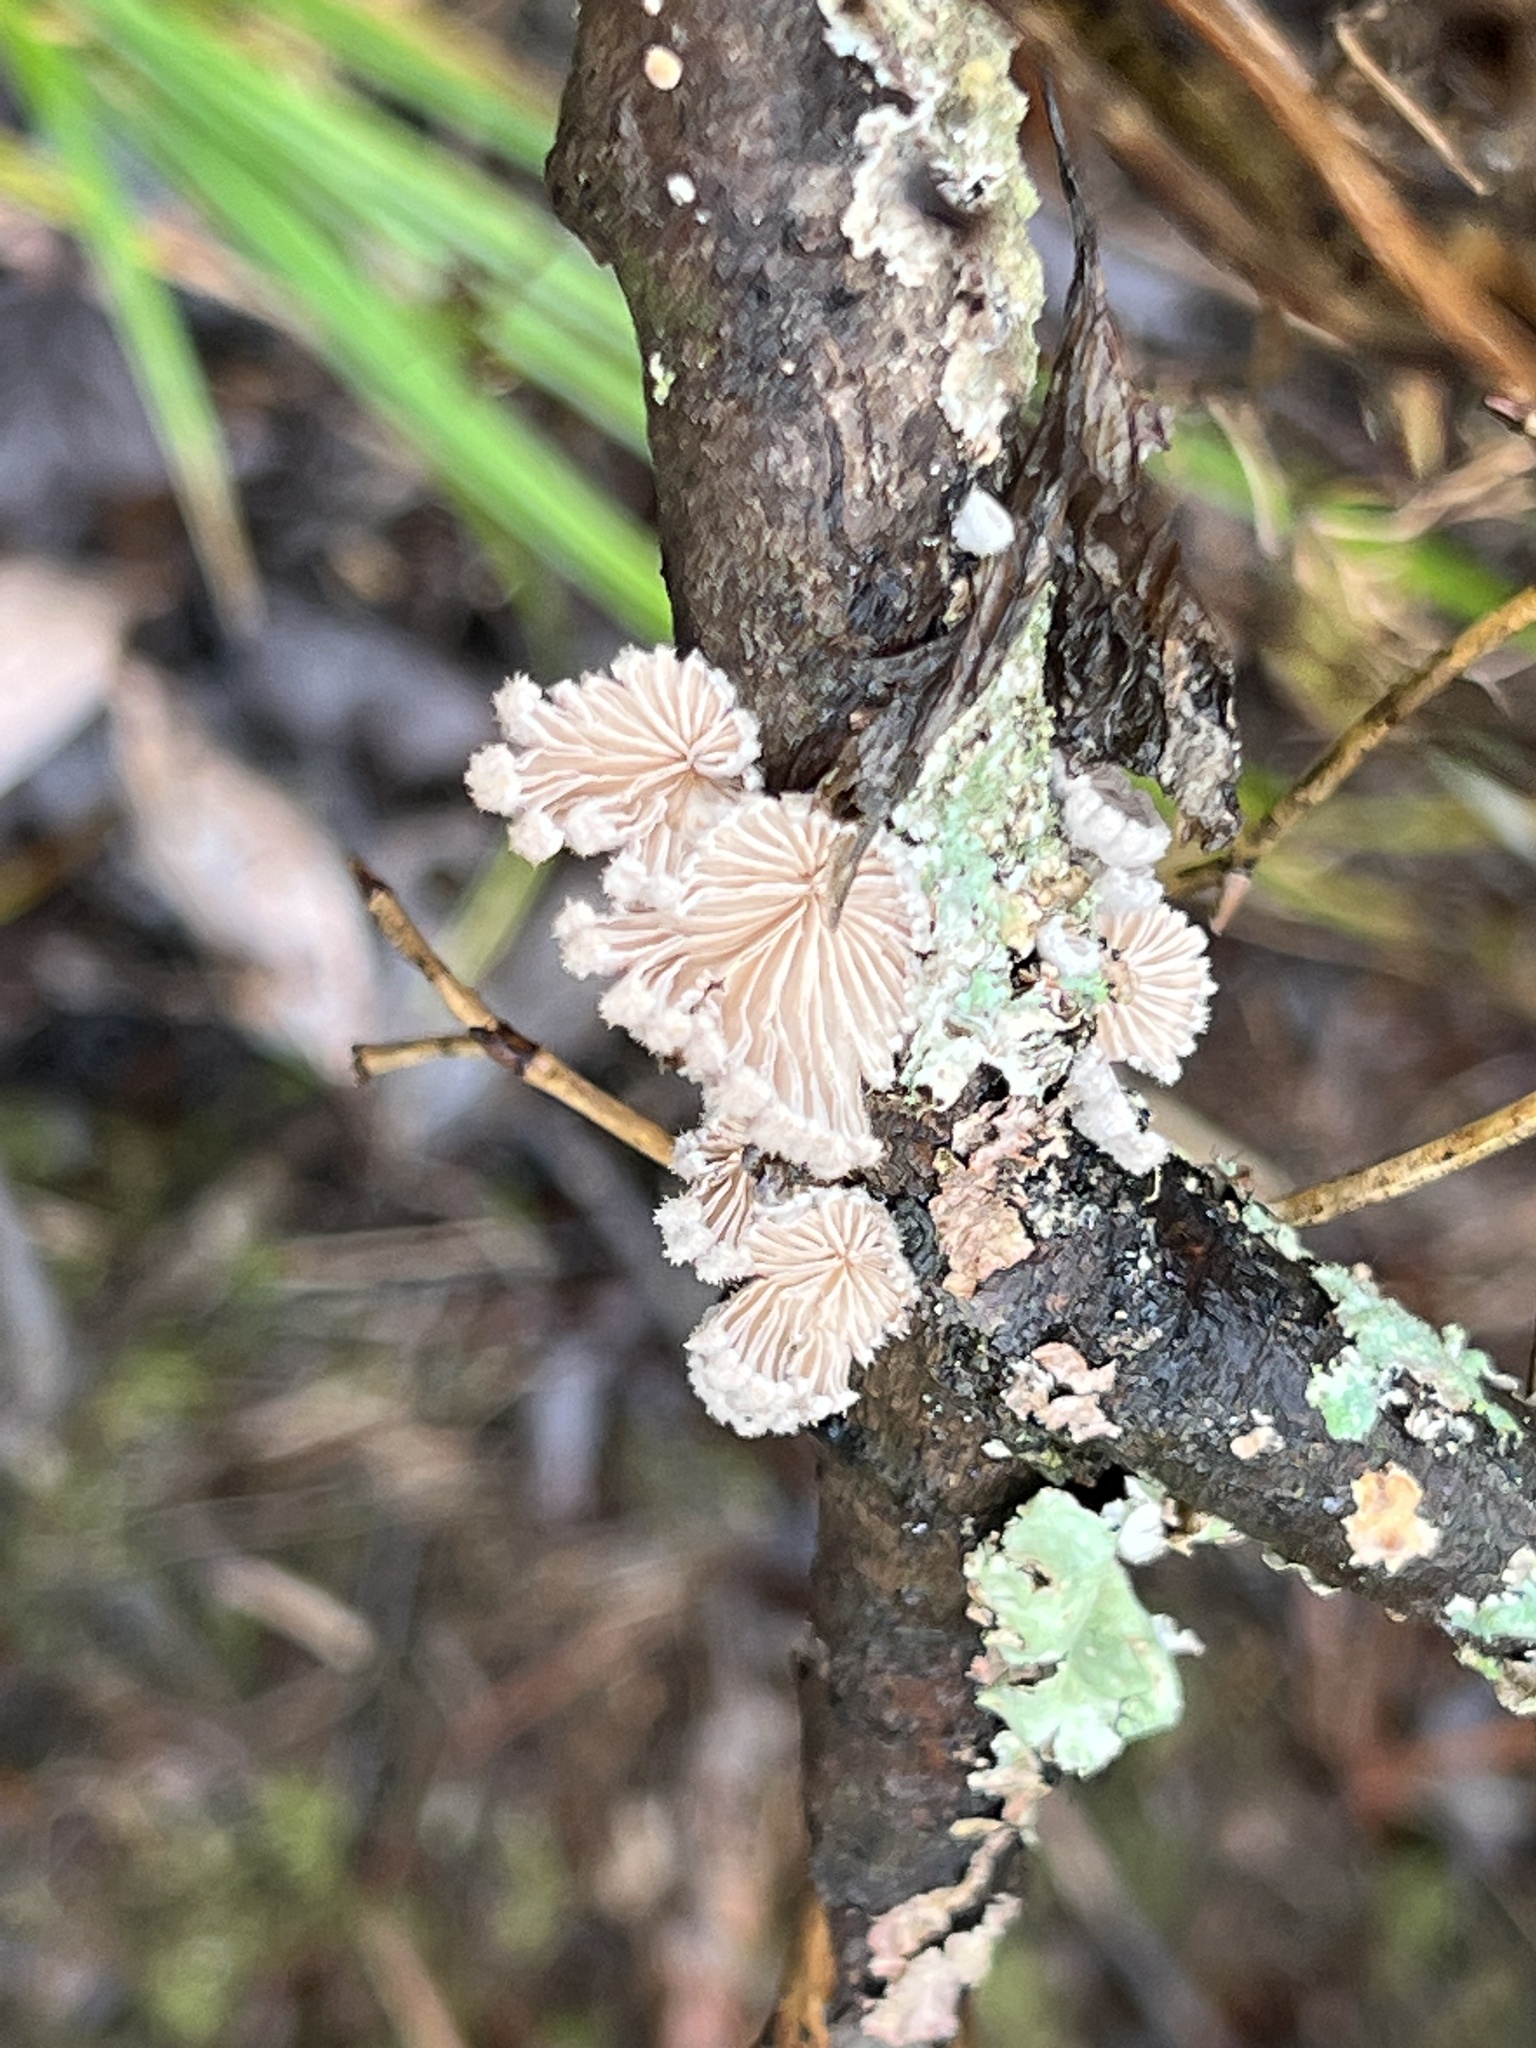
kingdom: Fungi
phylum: Basidiomycota
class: Agaricomycetes
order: Agaricales
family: Schizophyllaceae
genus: Schizophyllum
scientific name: Schizophyllum commune
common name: Common porecrust
